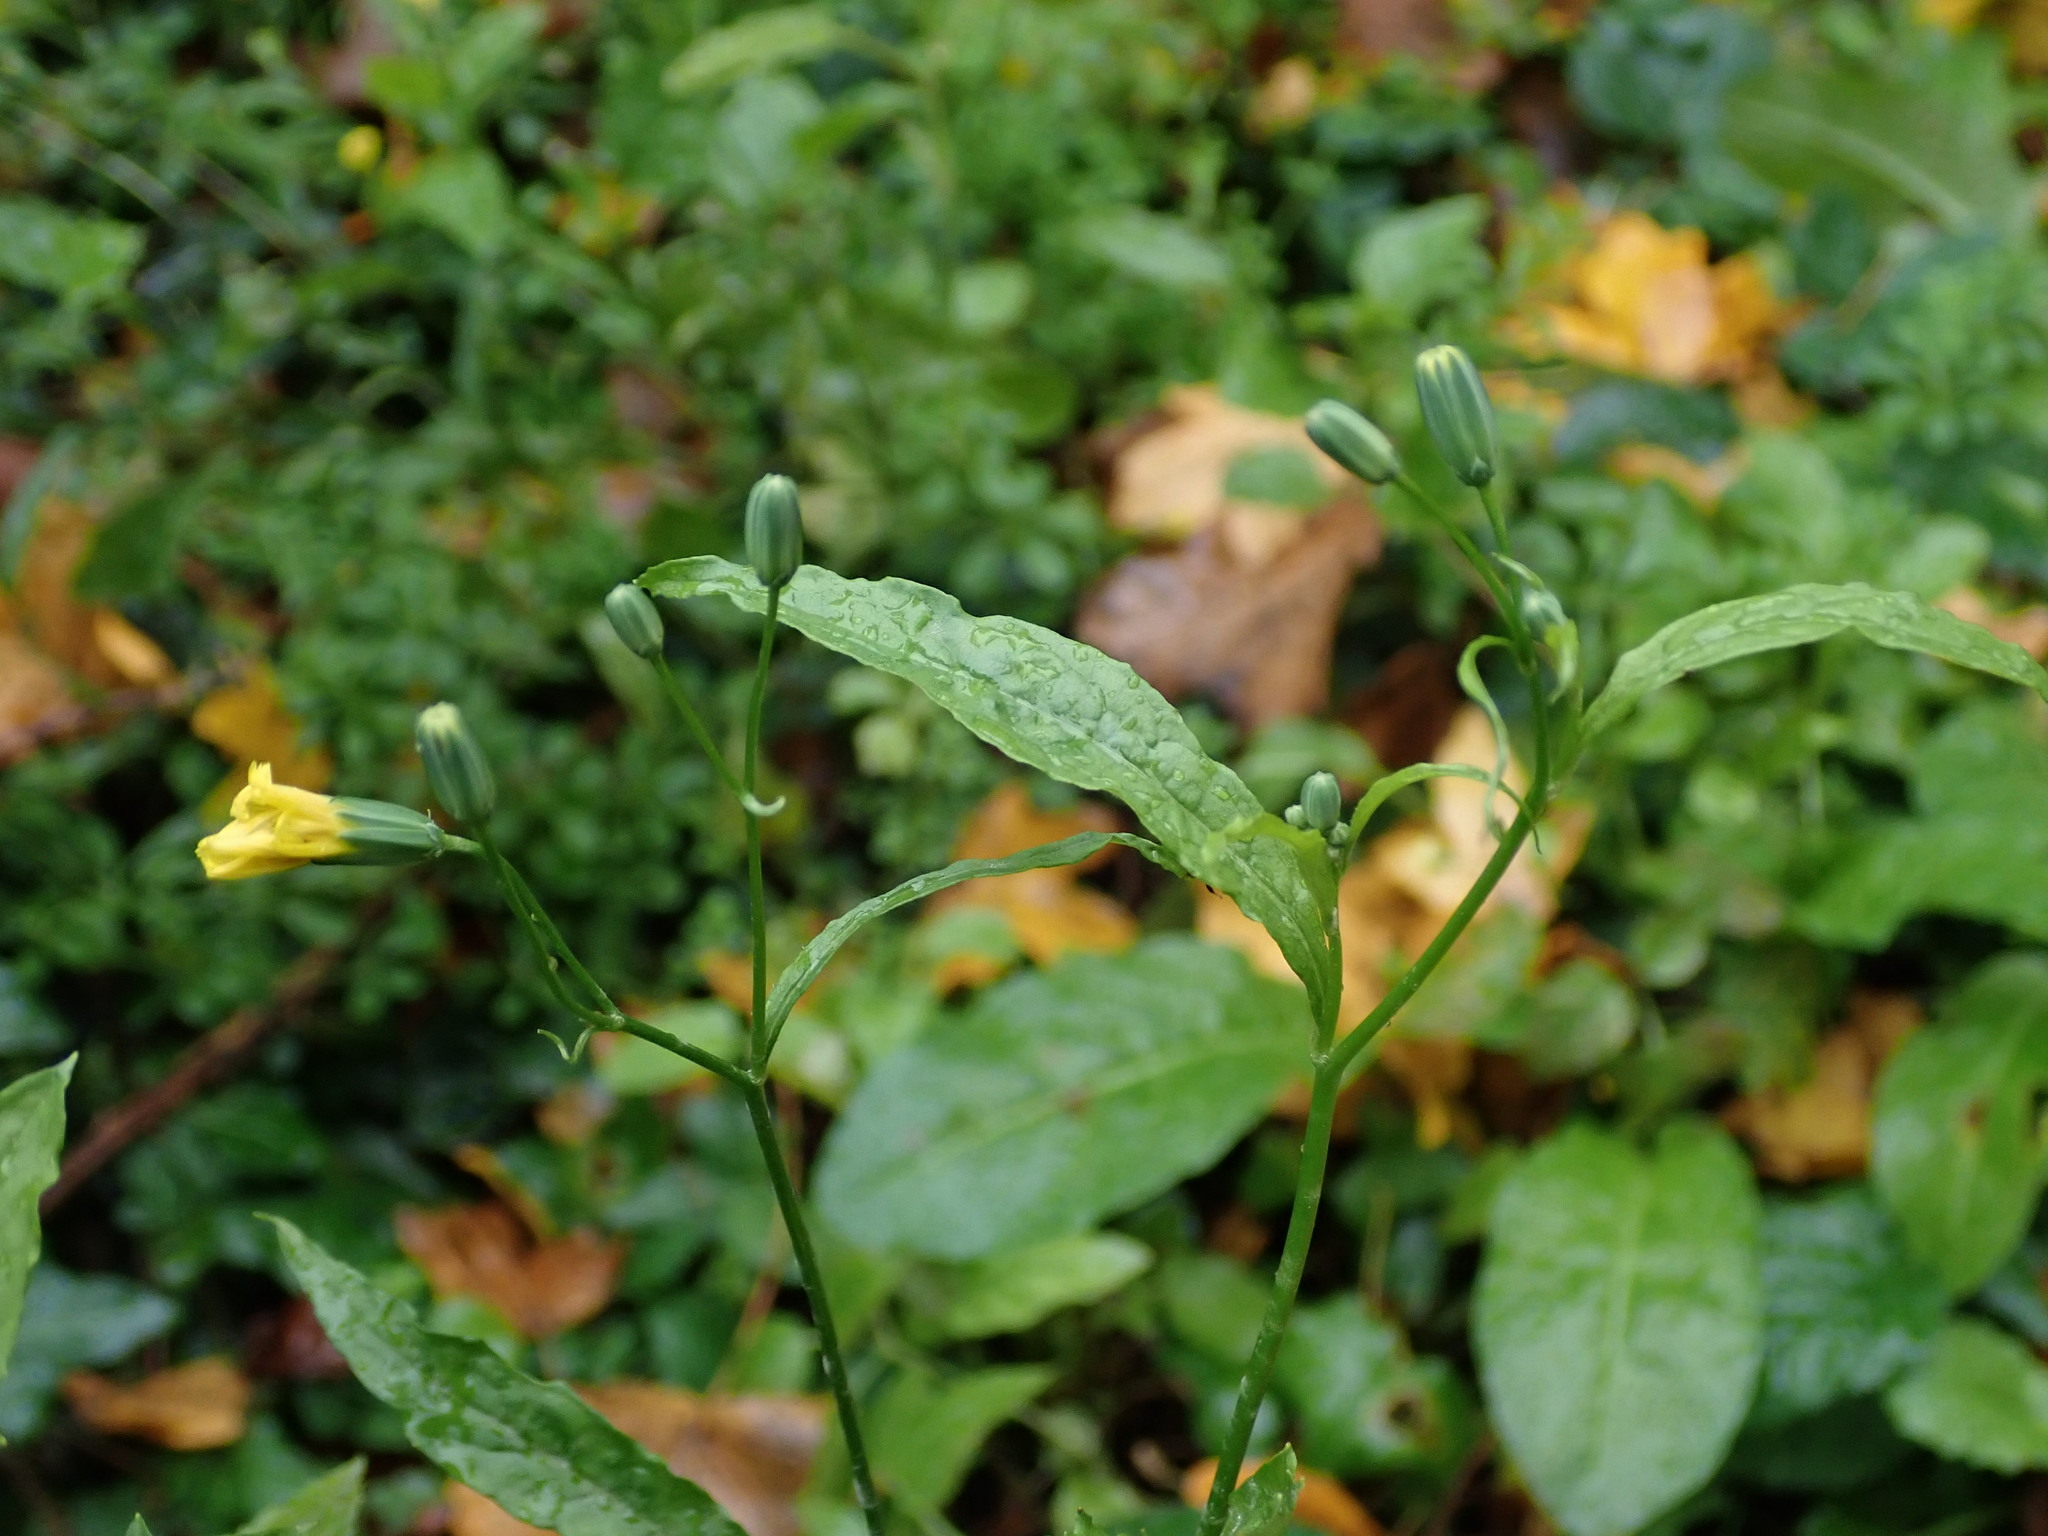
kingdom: Plantae
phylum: Tracheophyta
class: Magnoliopsida
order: Asterales
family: Asteraceae
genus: Lapsana
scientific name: Lapsana communis
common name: Nipplewort
